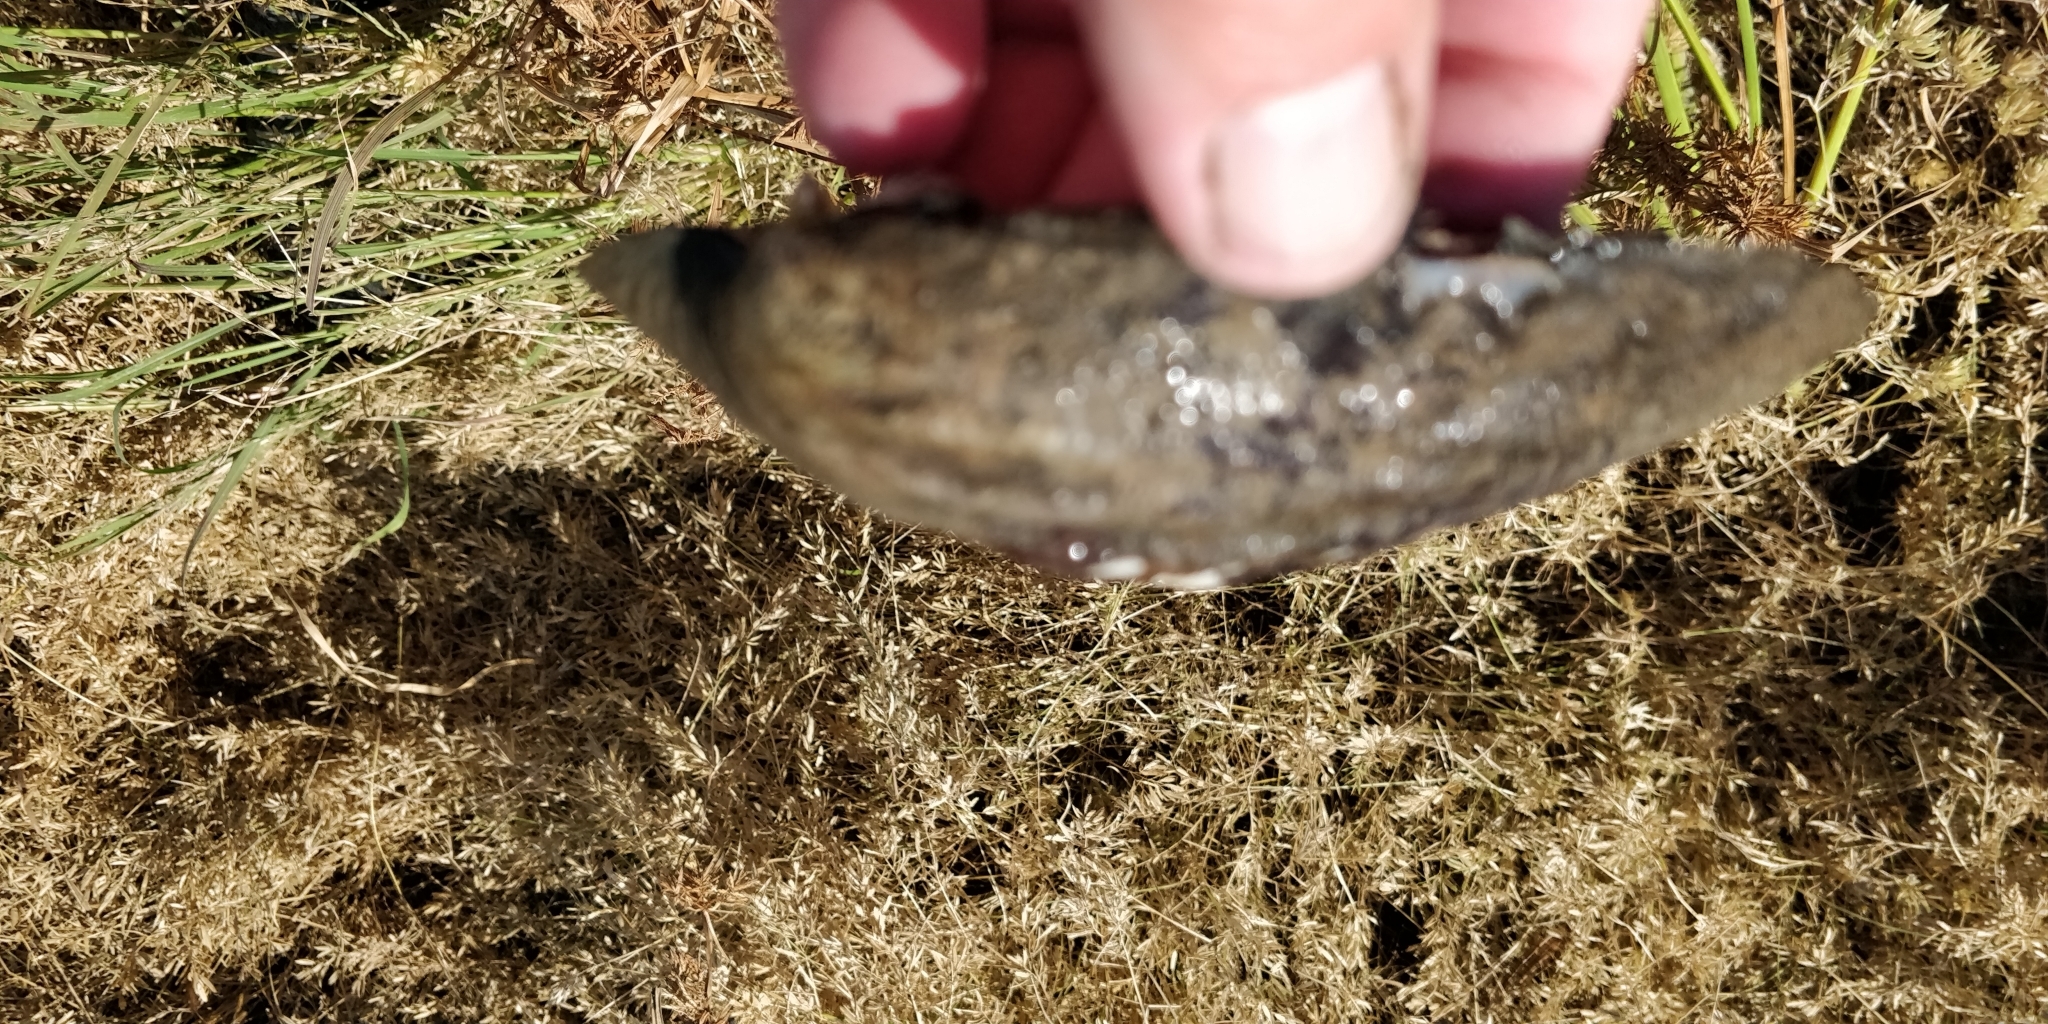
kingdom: Animalia
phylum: Mollusca
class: Bivalvia
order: Unionida
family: Unionidae
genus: Amblema
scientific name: Amblema plicata
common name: Threeridge
